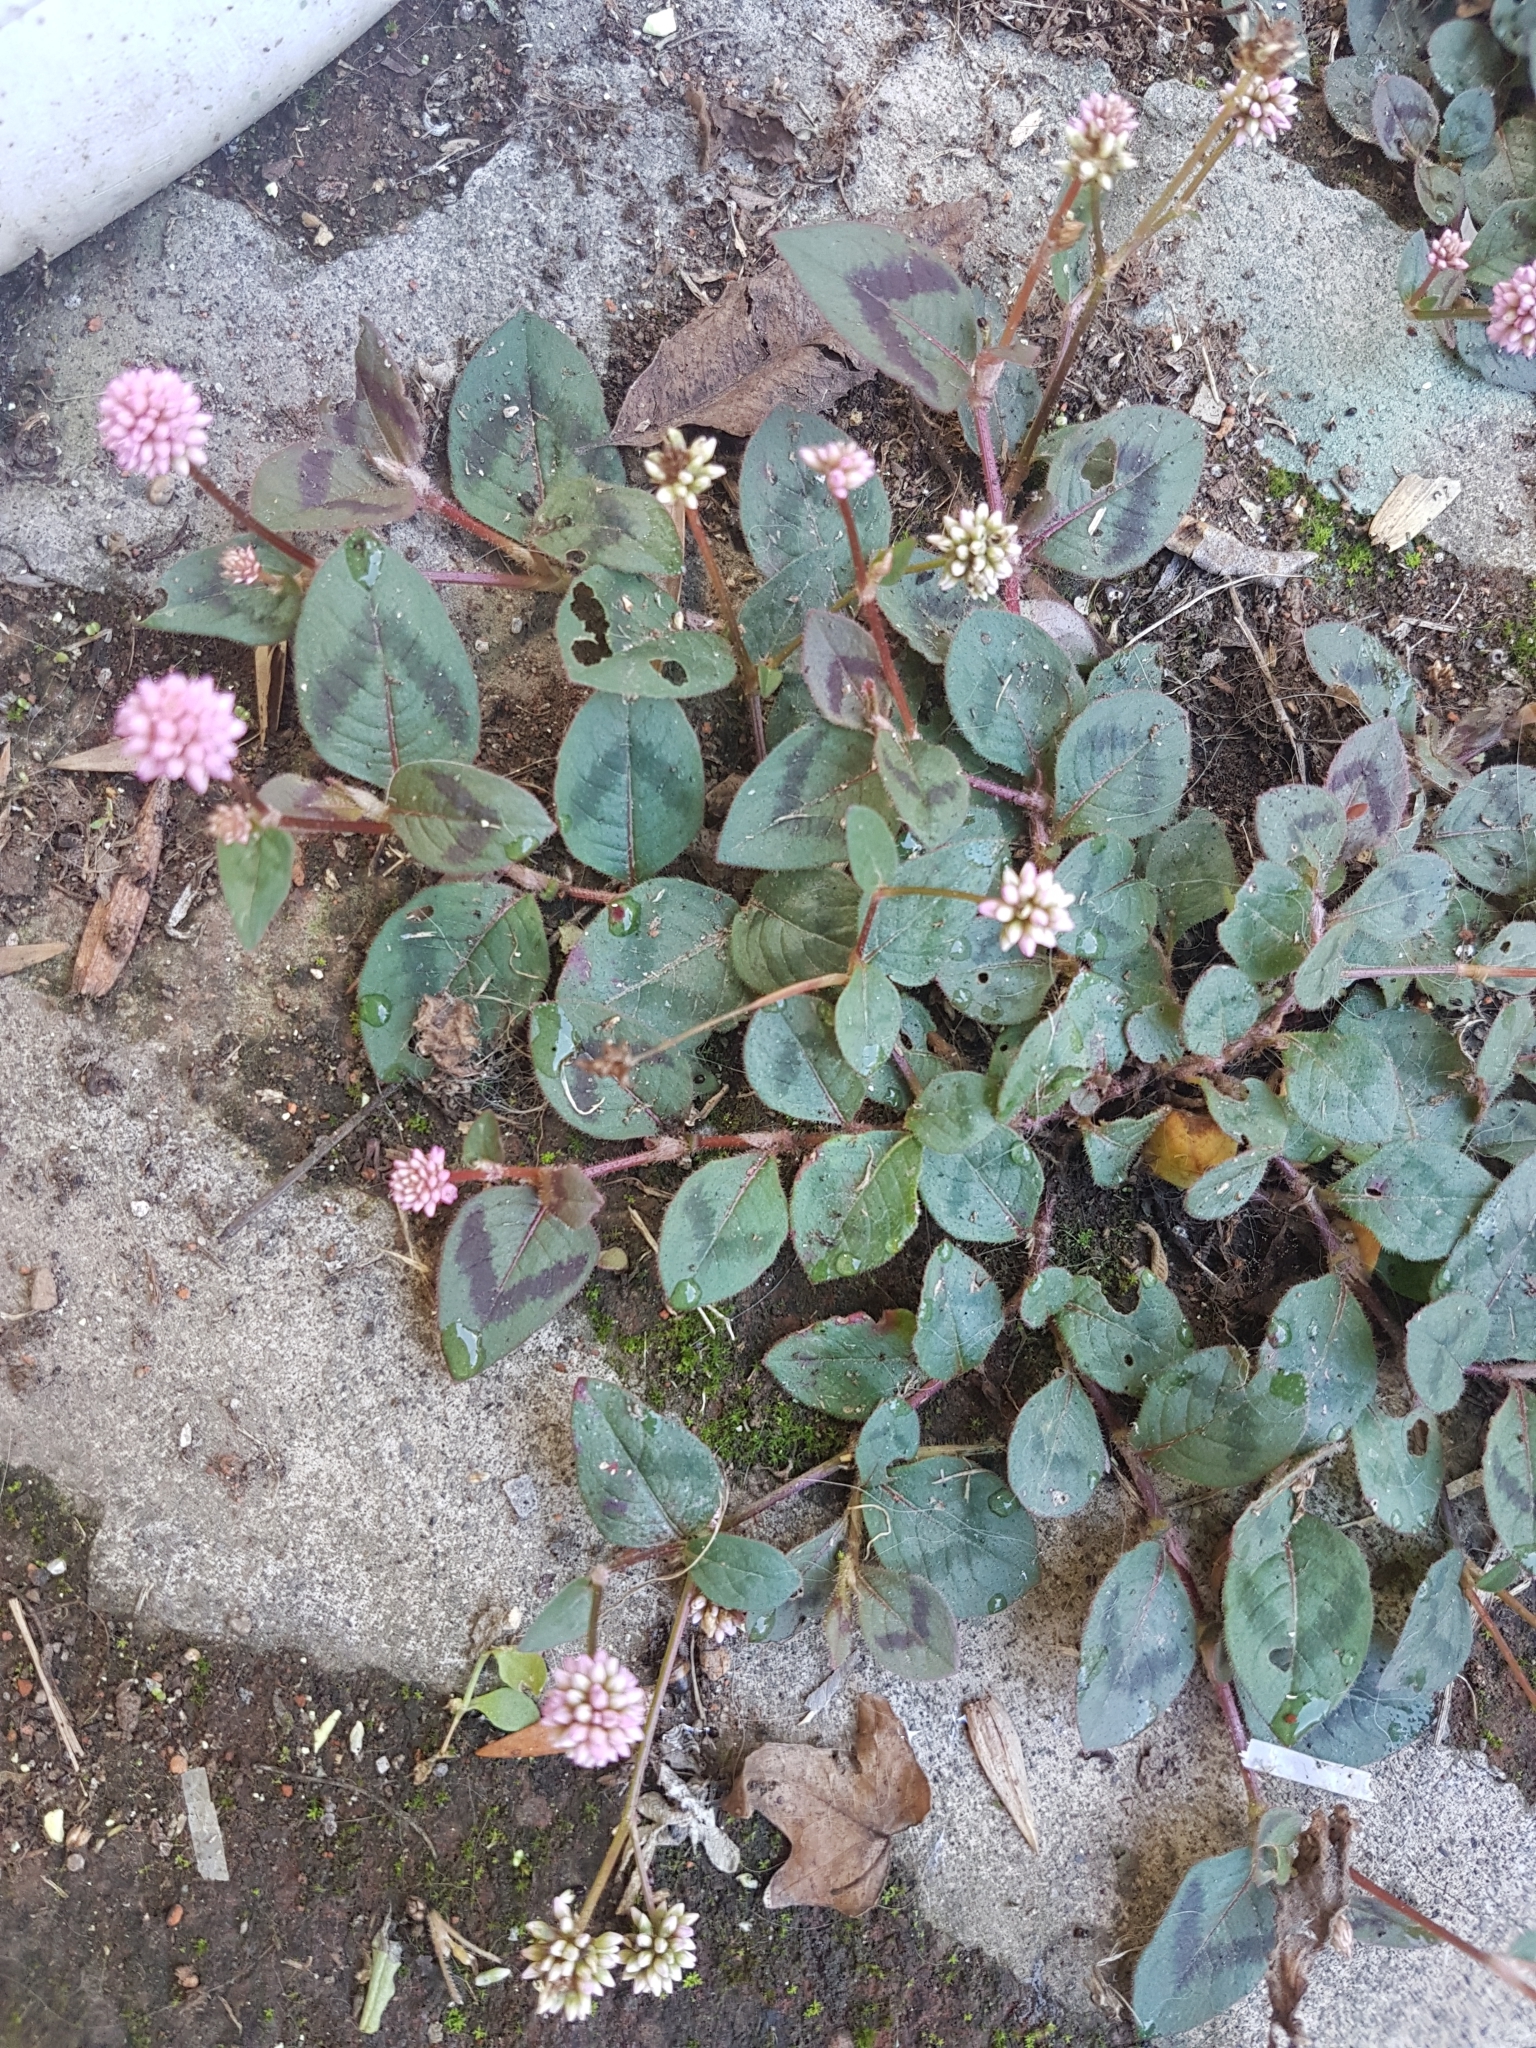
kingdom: Plantae
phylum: Tracheophyta
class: Magnoliopsida
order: Caryophyllales
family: Polygonaceae
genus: Persicaria
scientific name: Persicaria capitata
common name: Pinkhead smartweed
